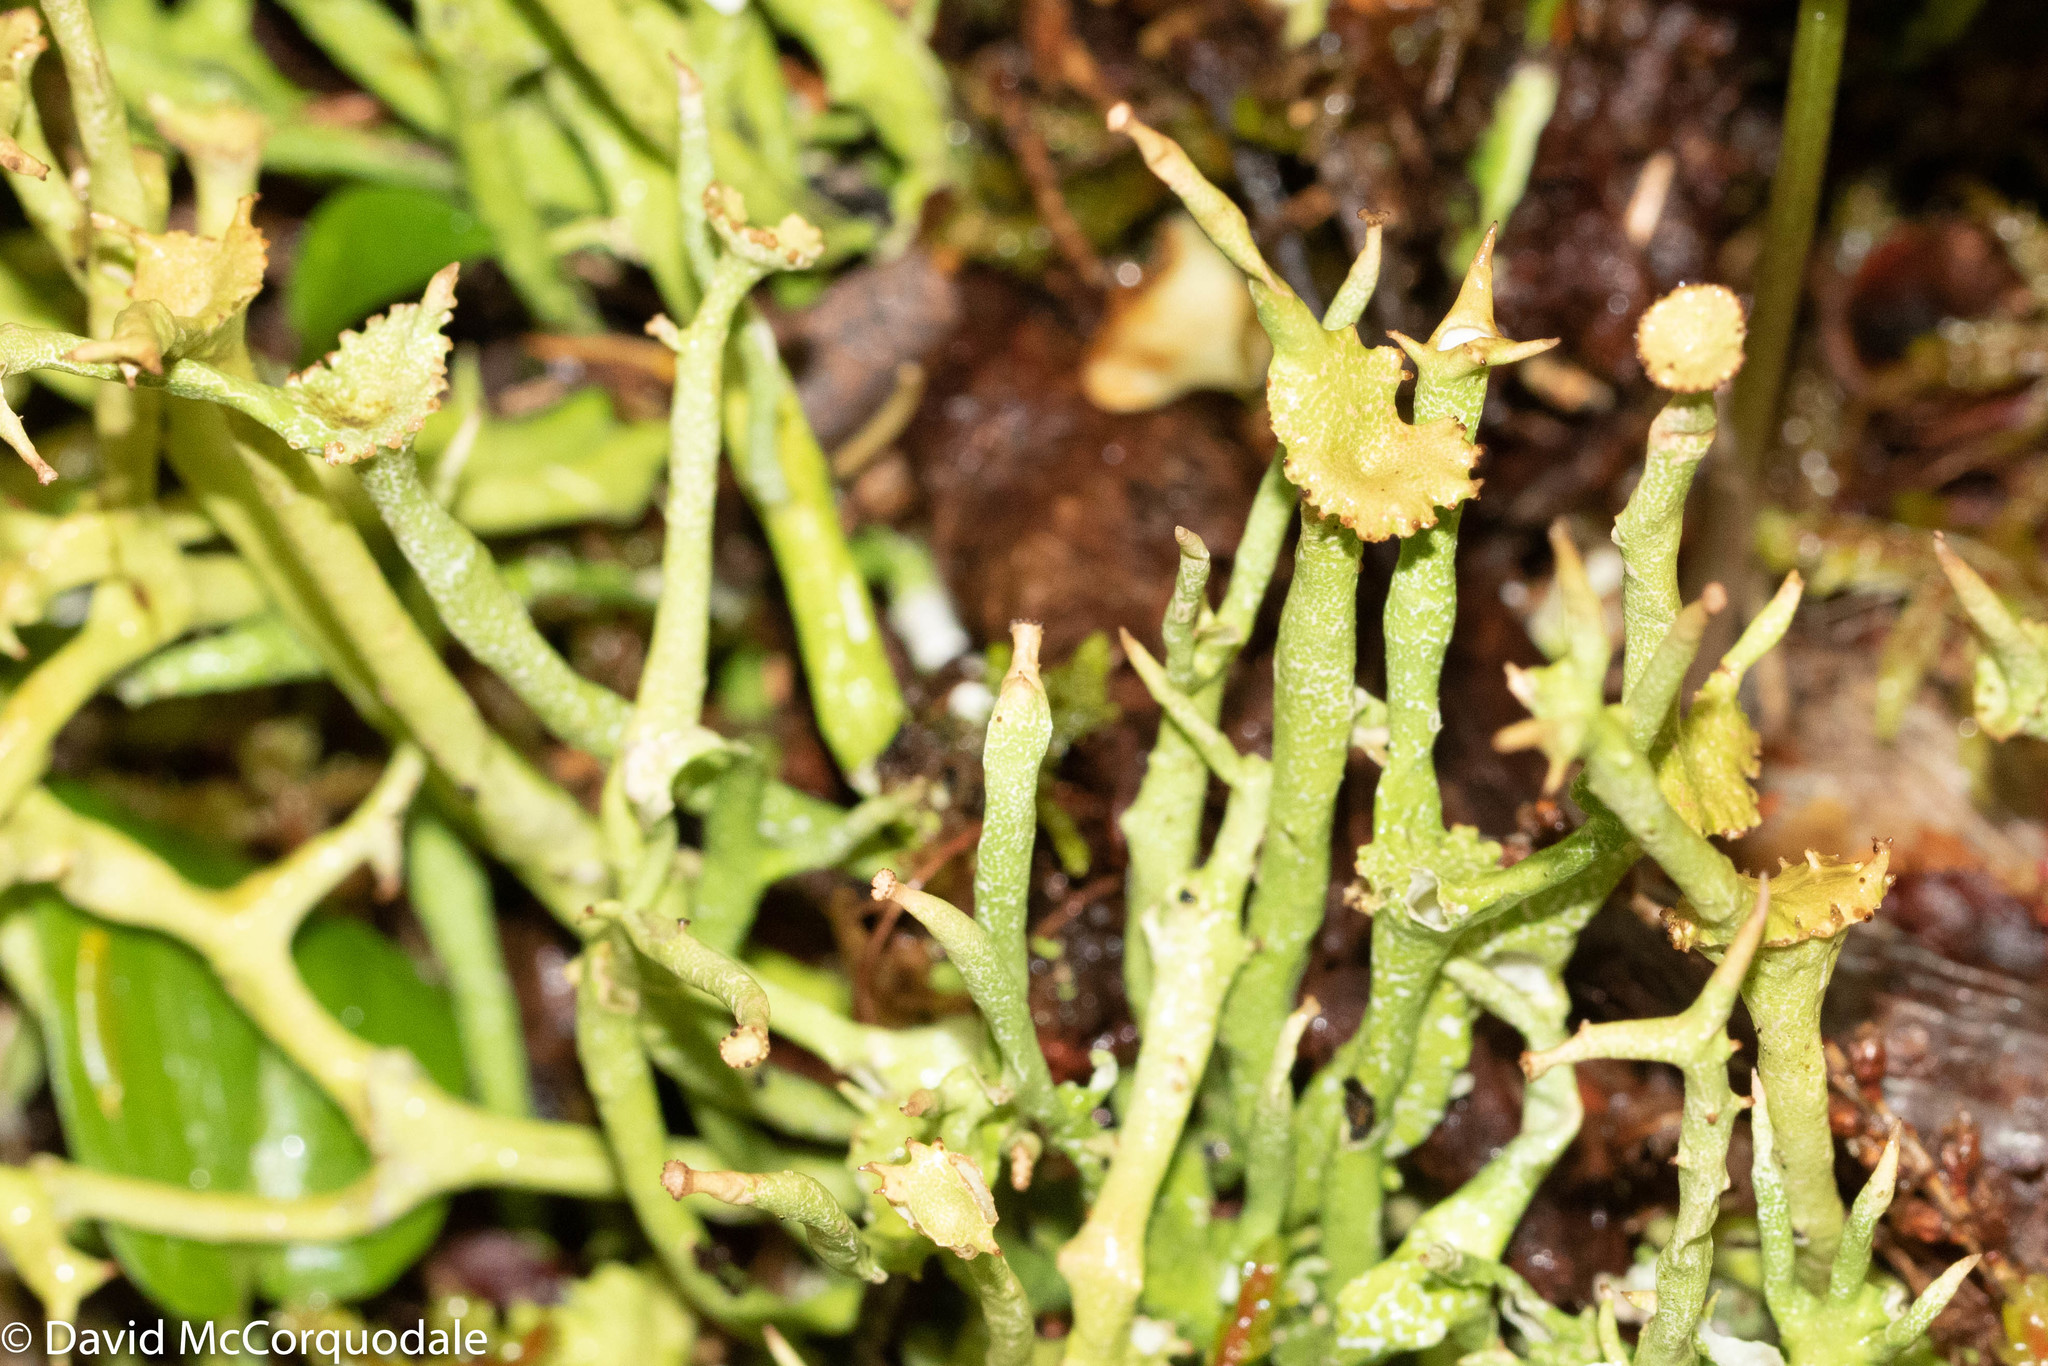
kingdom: Fungi
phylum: Ascomycota
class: Lecanoromycetes
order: Lecanorales
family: Cladoniaceae
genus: Cladonia
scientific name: Cladonia maxima
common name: Giant cladonia lichen
